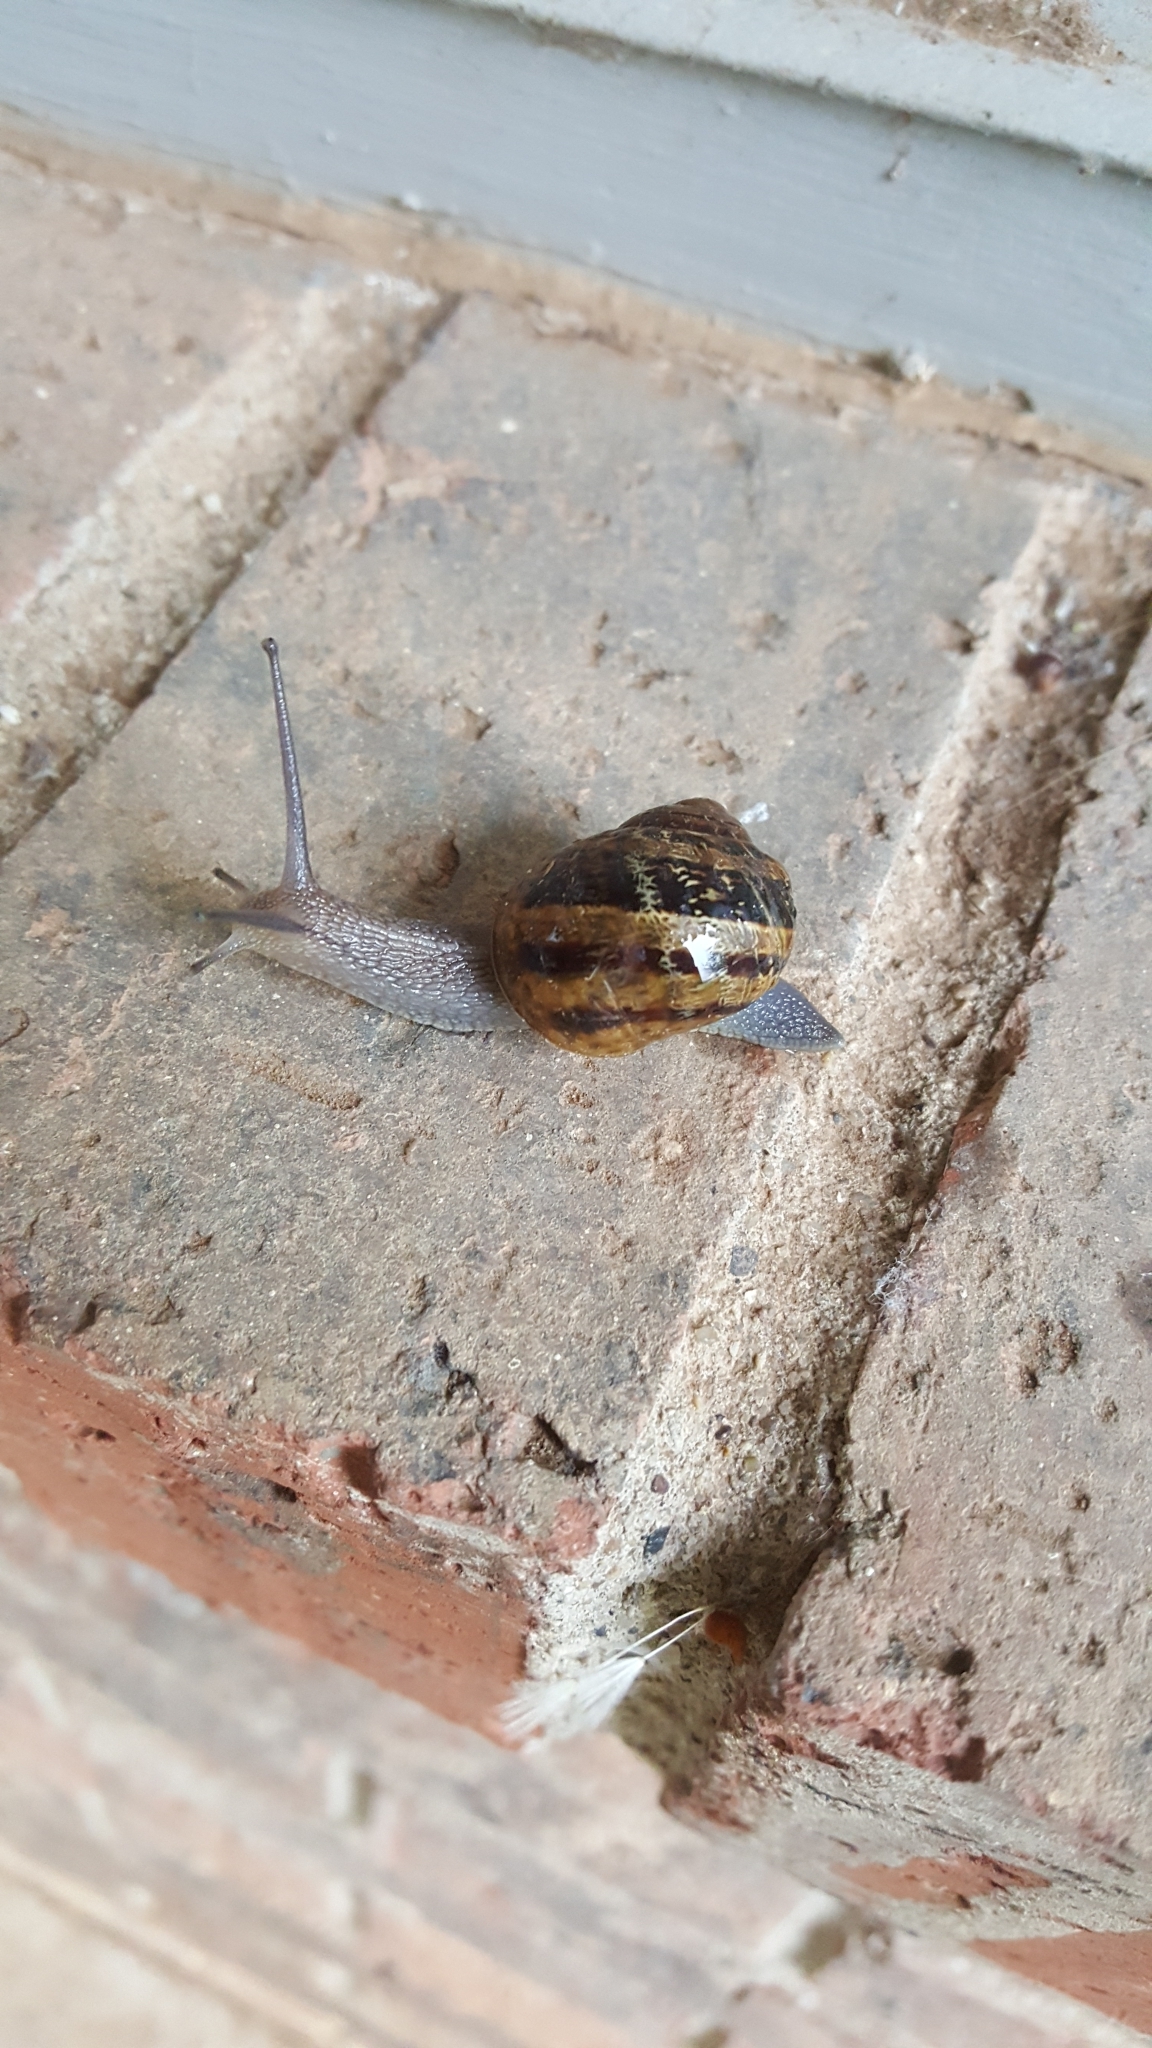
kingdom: Animalia
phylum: Mollusca
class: Gastropoda
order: Stylommatophora
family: Helicidae
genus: Cornu
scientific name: Cornu aspersum
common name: Brown garden snail
